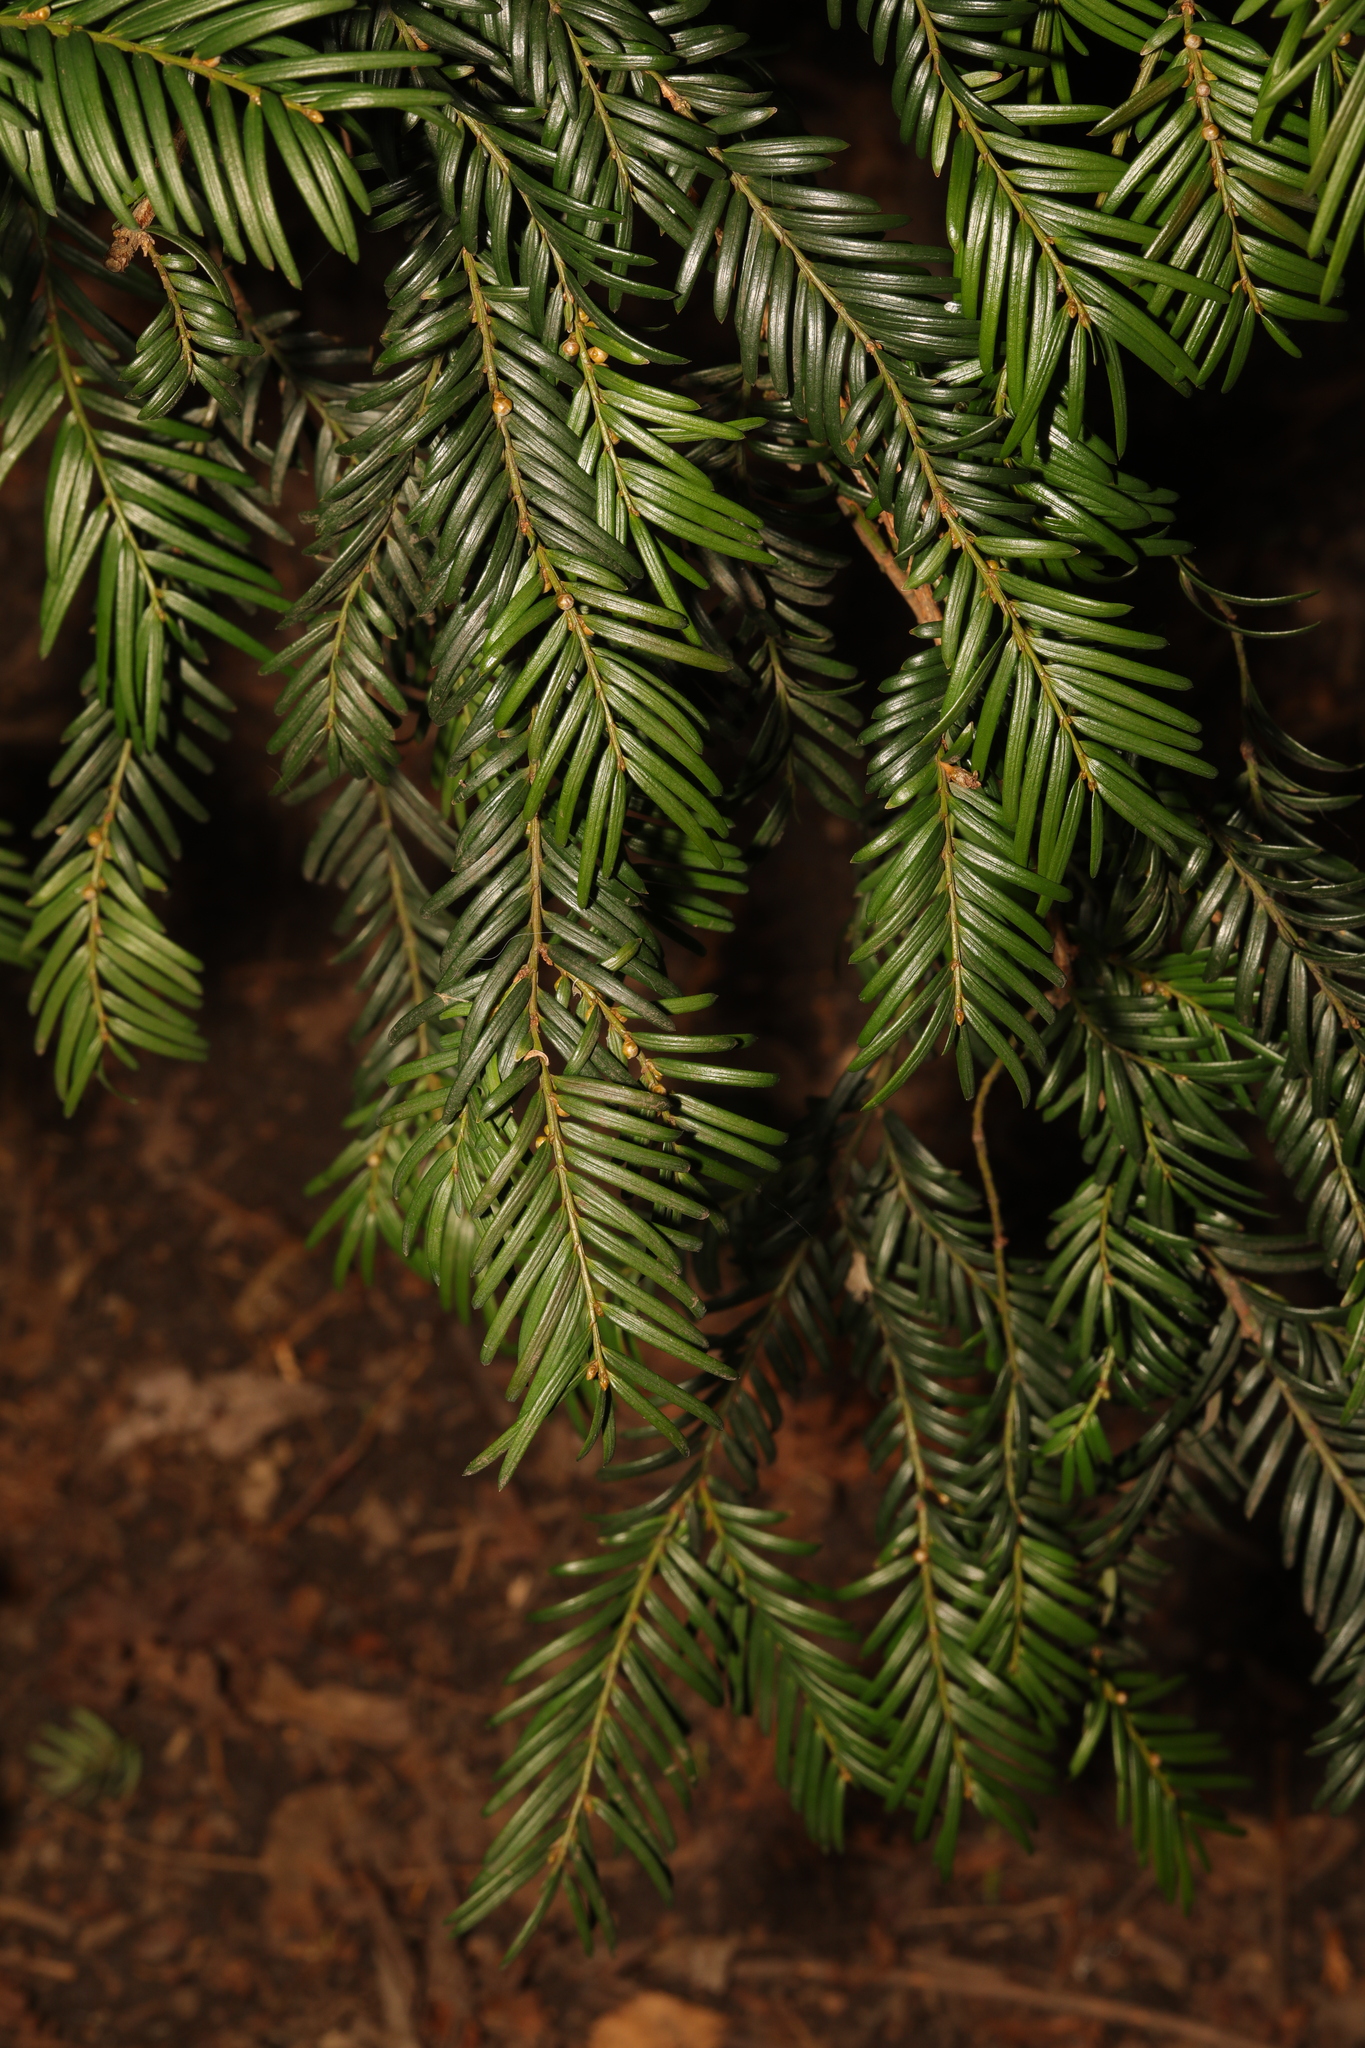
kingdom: Plantae
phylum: Tracheophyta
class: Pinopsida
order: Pinales
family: Taxaceae
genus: Taxus
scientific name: Taxus baccata
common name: Yew
